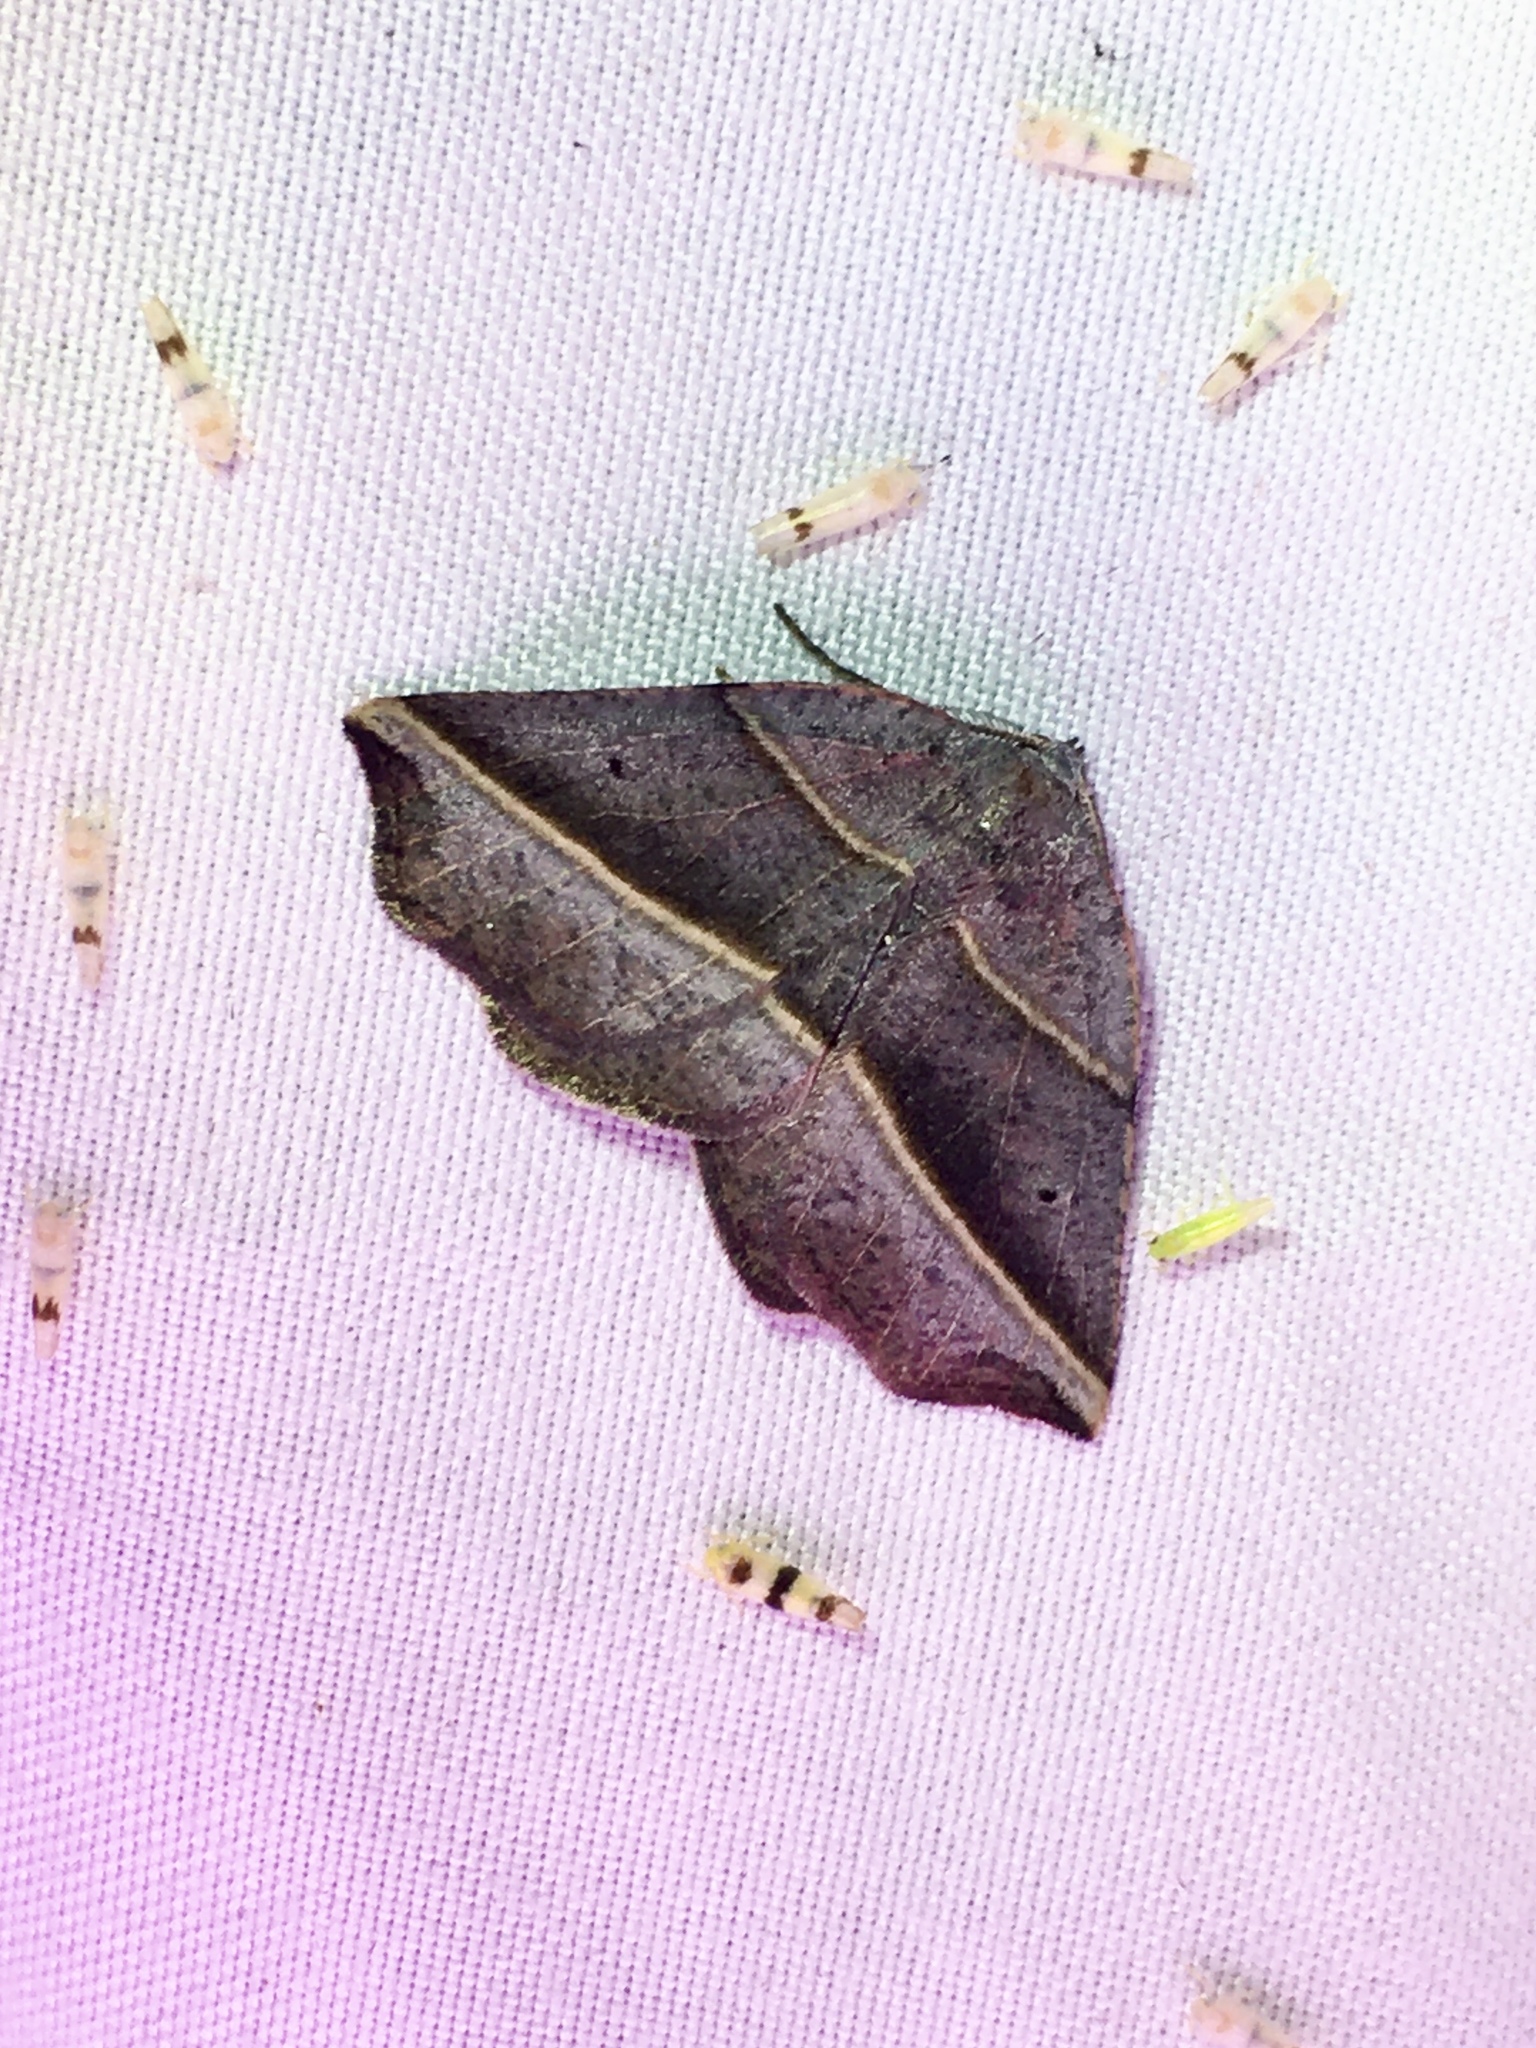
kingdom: Animalia
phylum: Arthropoda
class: Insecta
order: Lepidoptera
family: Geometridae
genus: Metanema
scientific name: Metanema determinata
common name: Dark metanema
